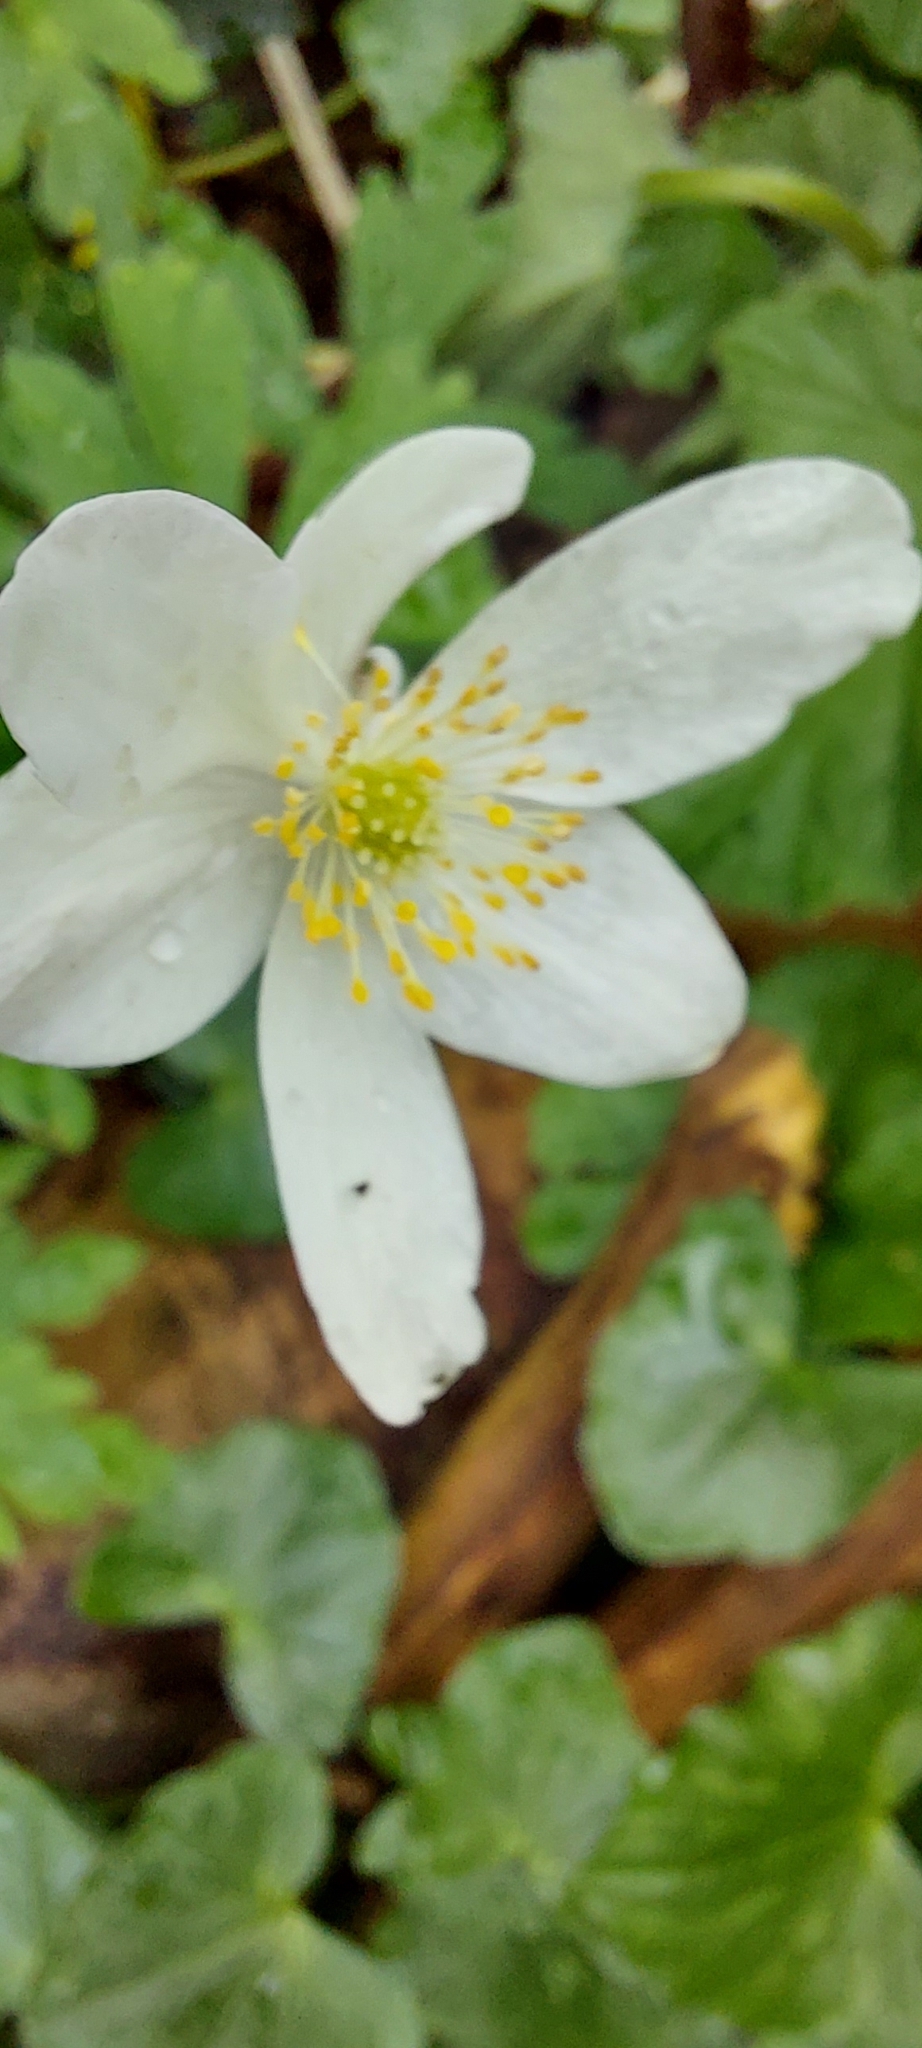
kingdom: Plantae
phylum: Tracheophyta
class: Magnoliopsida
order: Ranunculales
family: Ranunculaceae
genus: Anemone
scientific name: Anemone nemorosa
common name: Wood anemone
